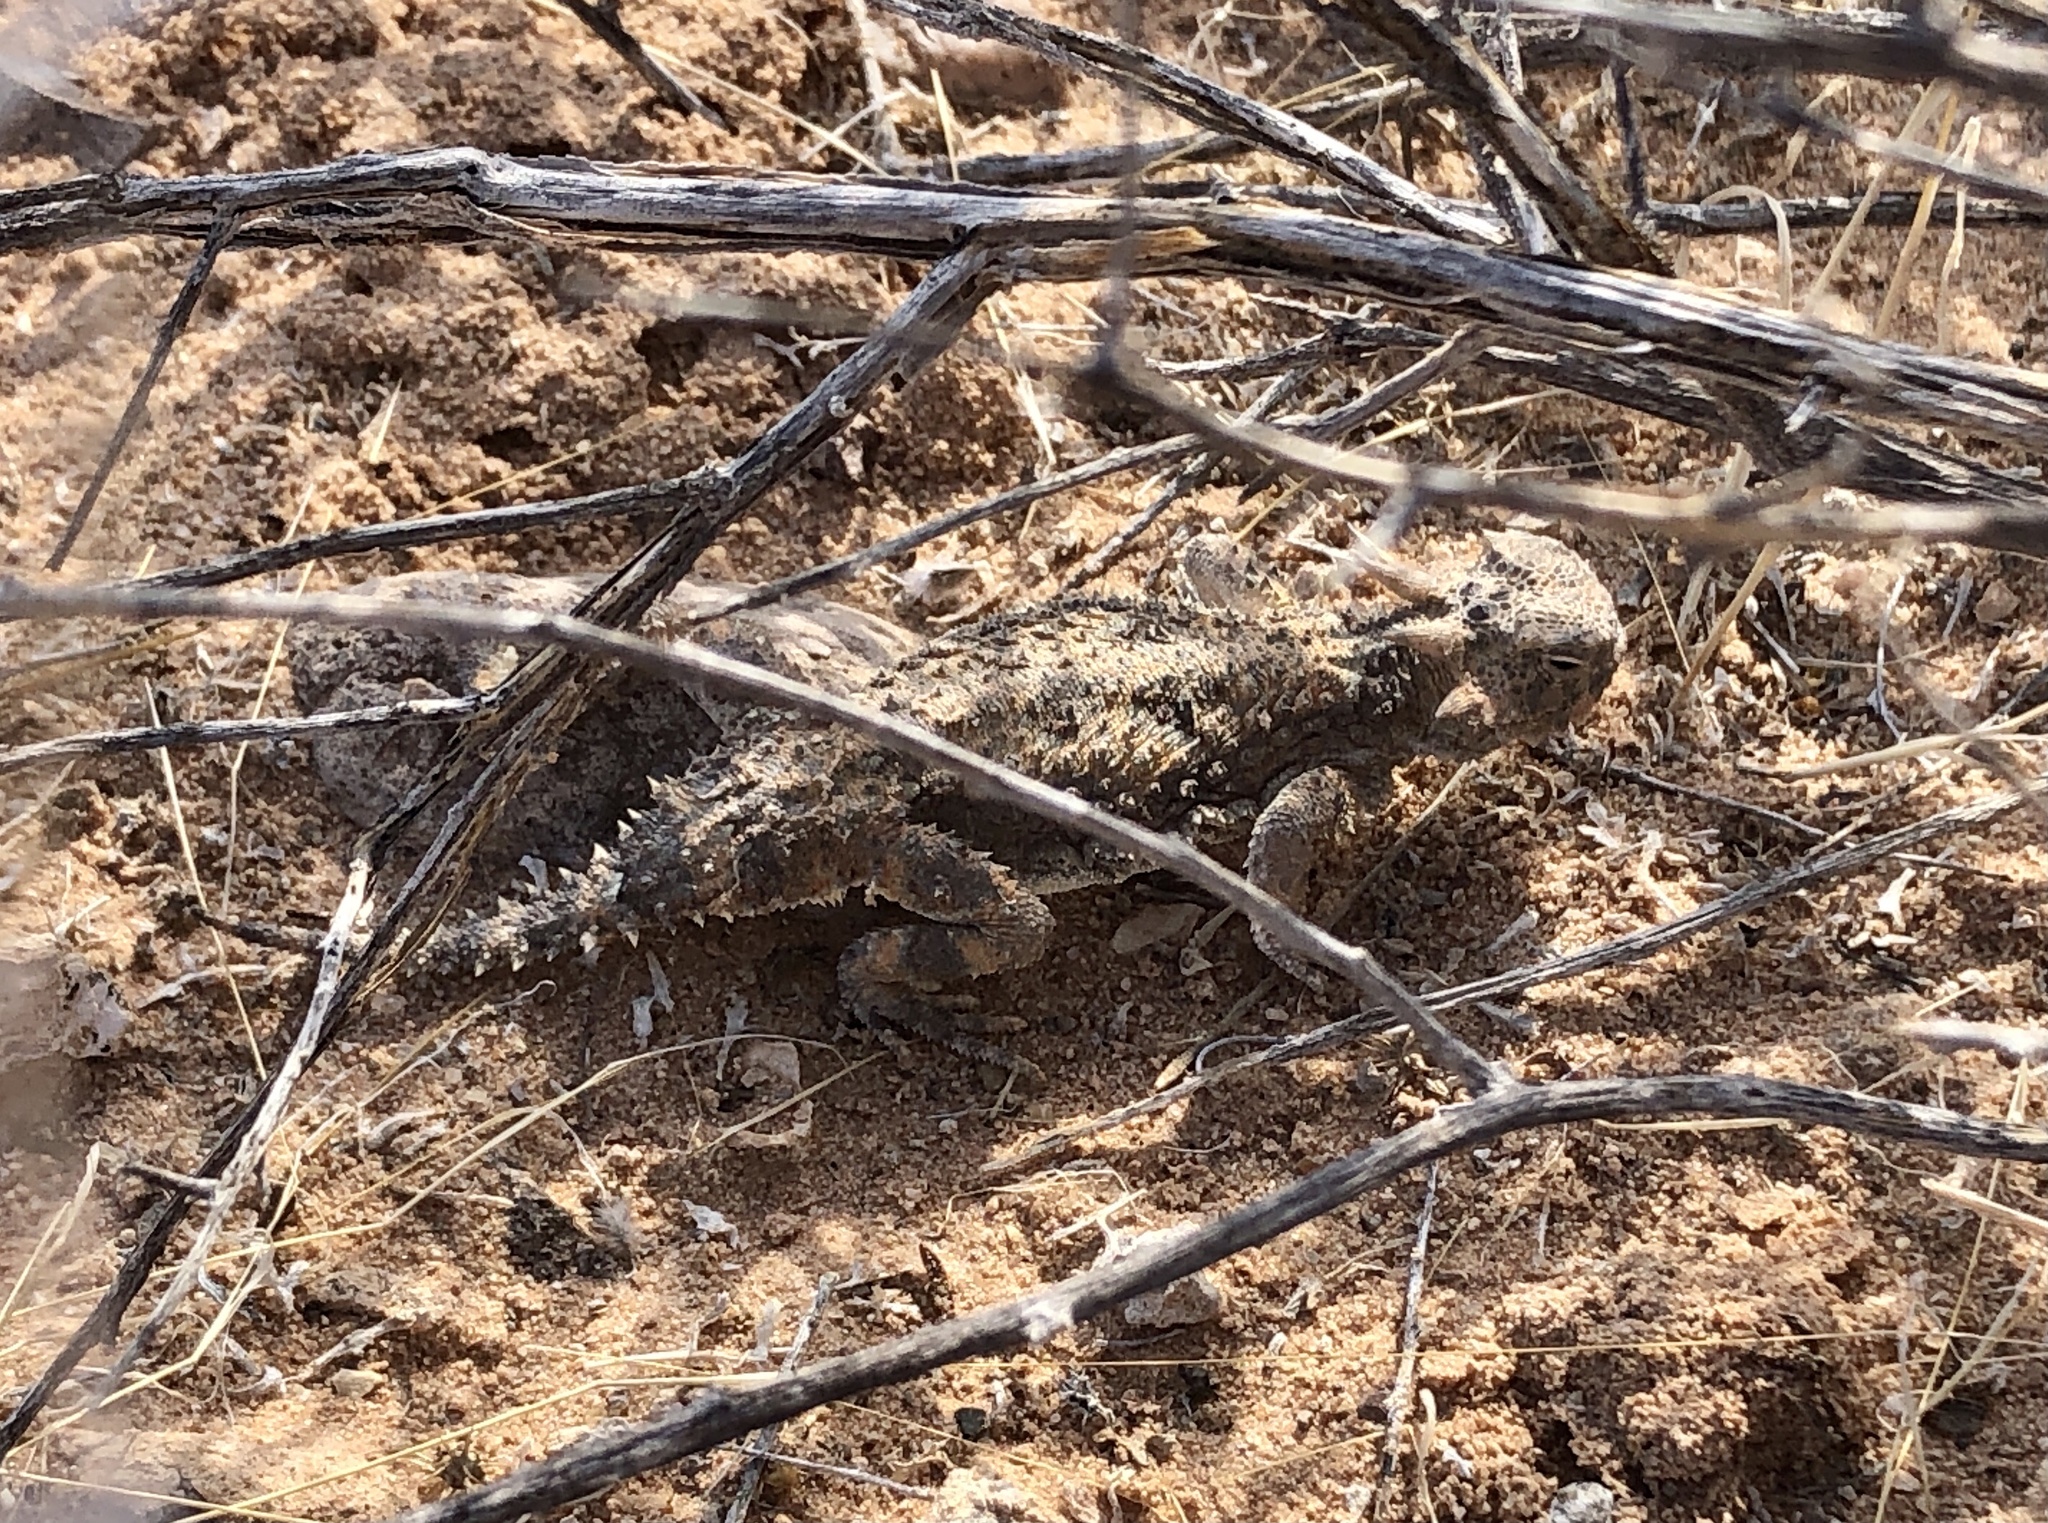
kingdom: Animalia
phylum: Chordata
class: Squamata
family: Phrynosomatidae
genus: Phrynosoma
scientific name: Phrynosoma platyrhinos
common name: Desert horned lizard
